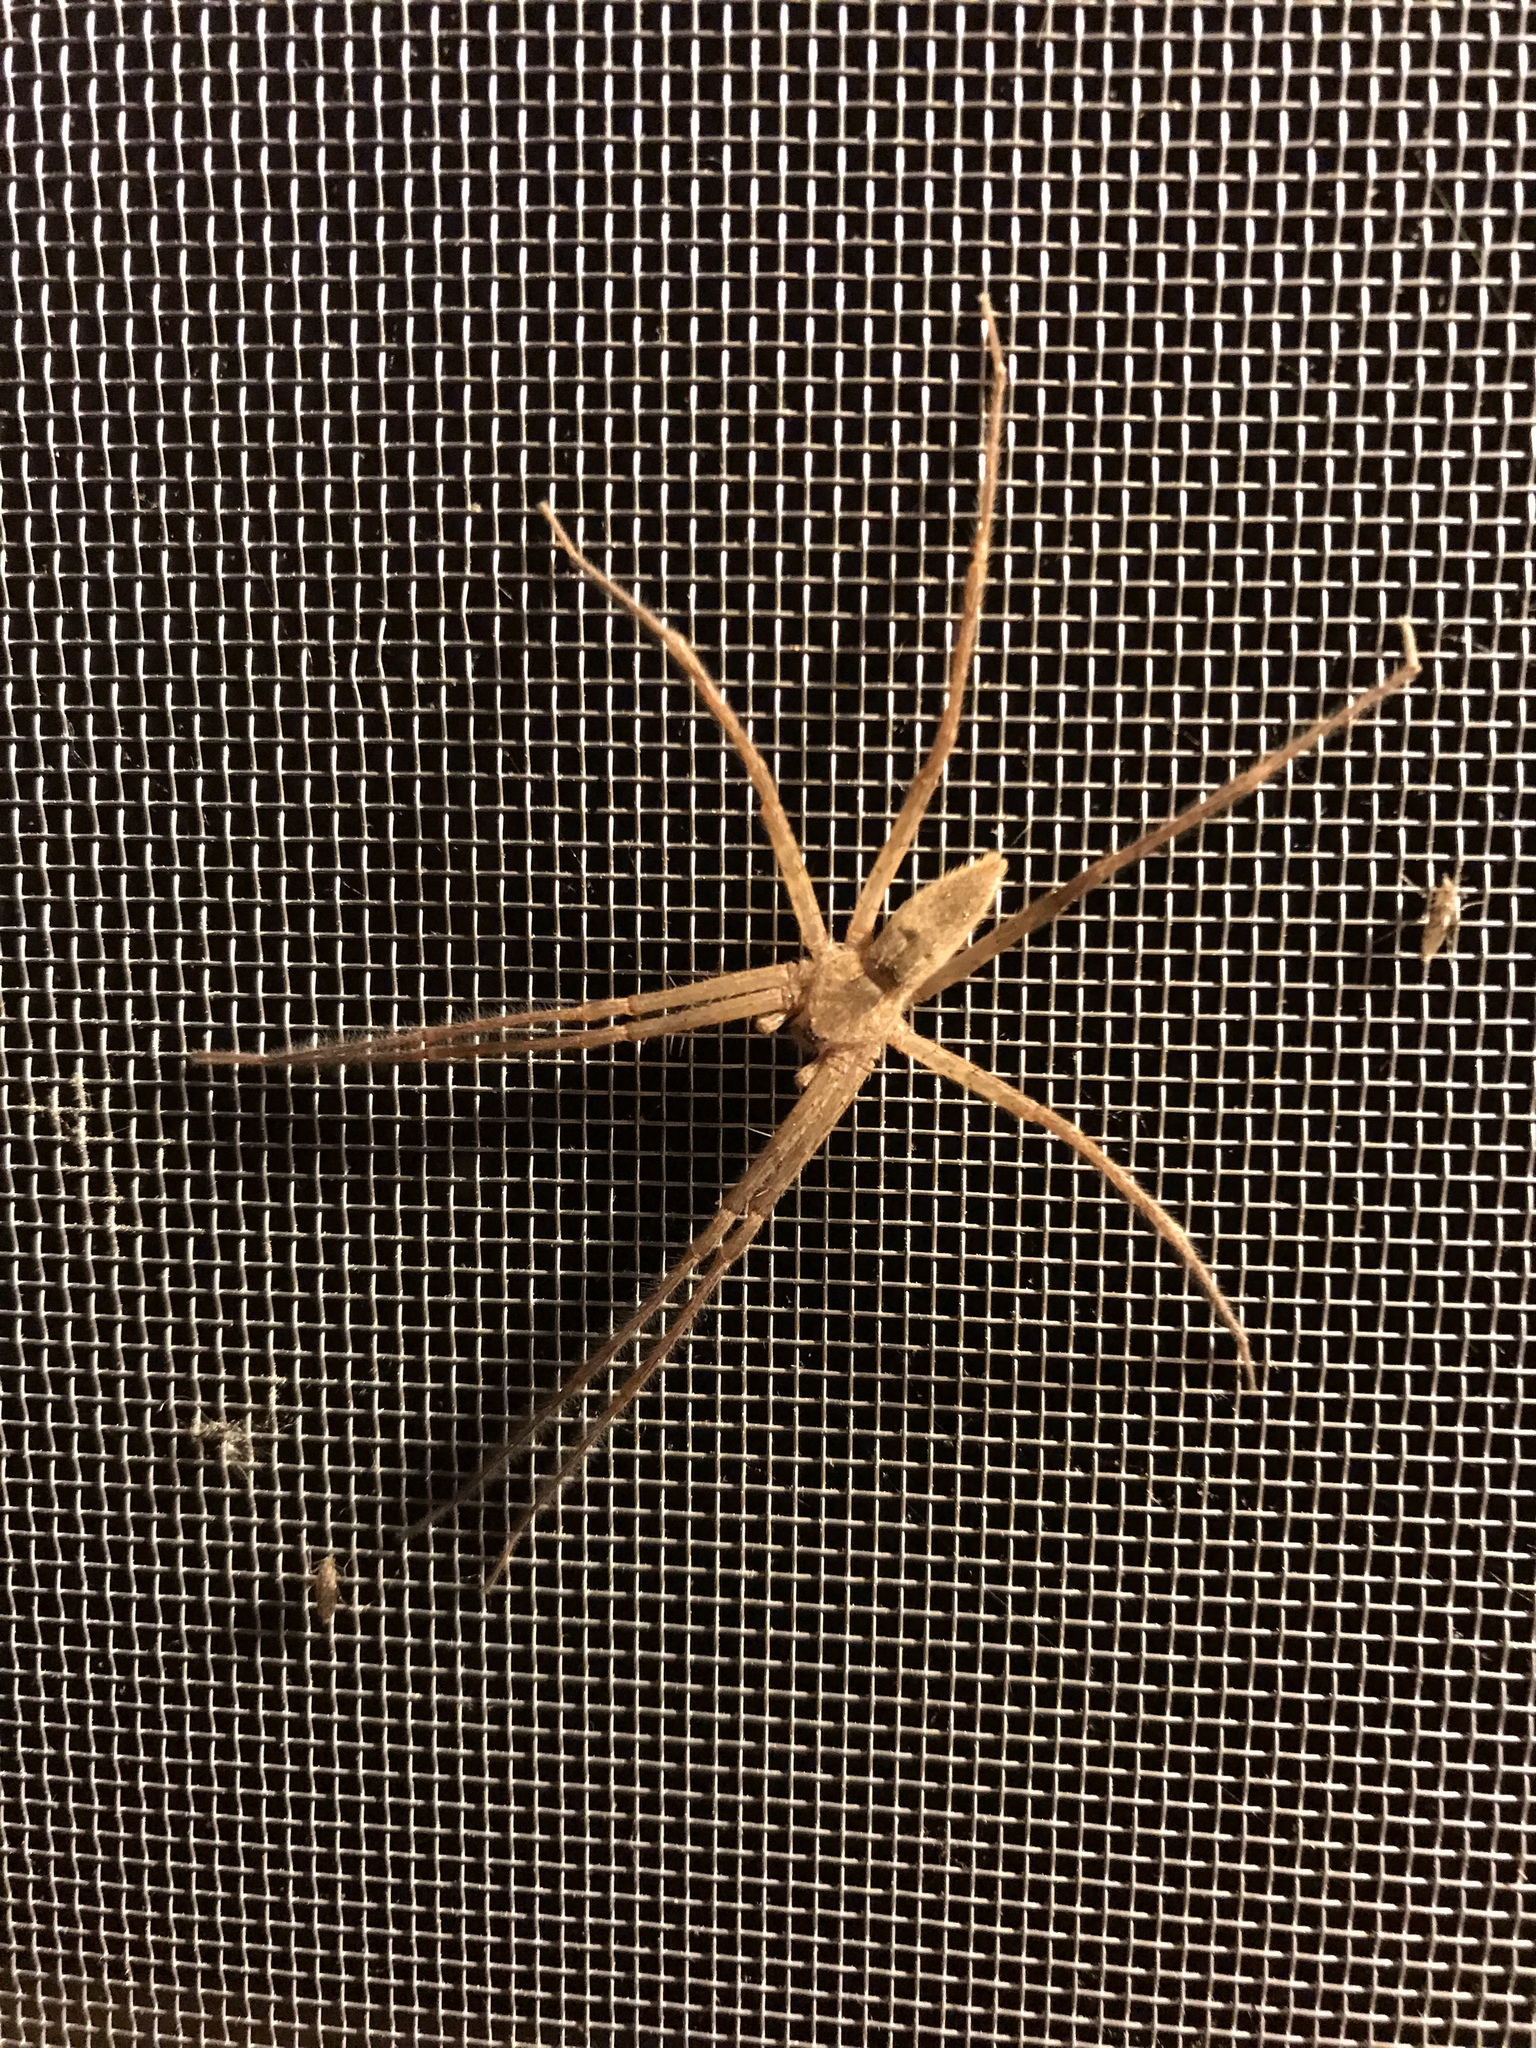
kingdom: Animalia
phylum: Arthropoda
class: Arachnida
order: Araneae
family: Pisauridae
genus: Pisaurina
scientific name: Pisaurina mira
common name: American nursery web spider
